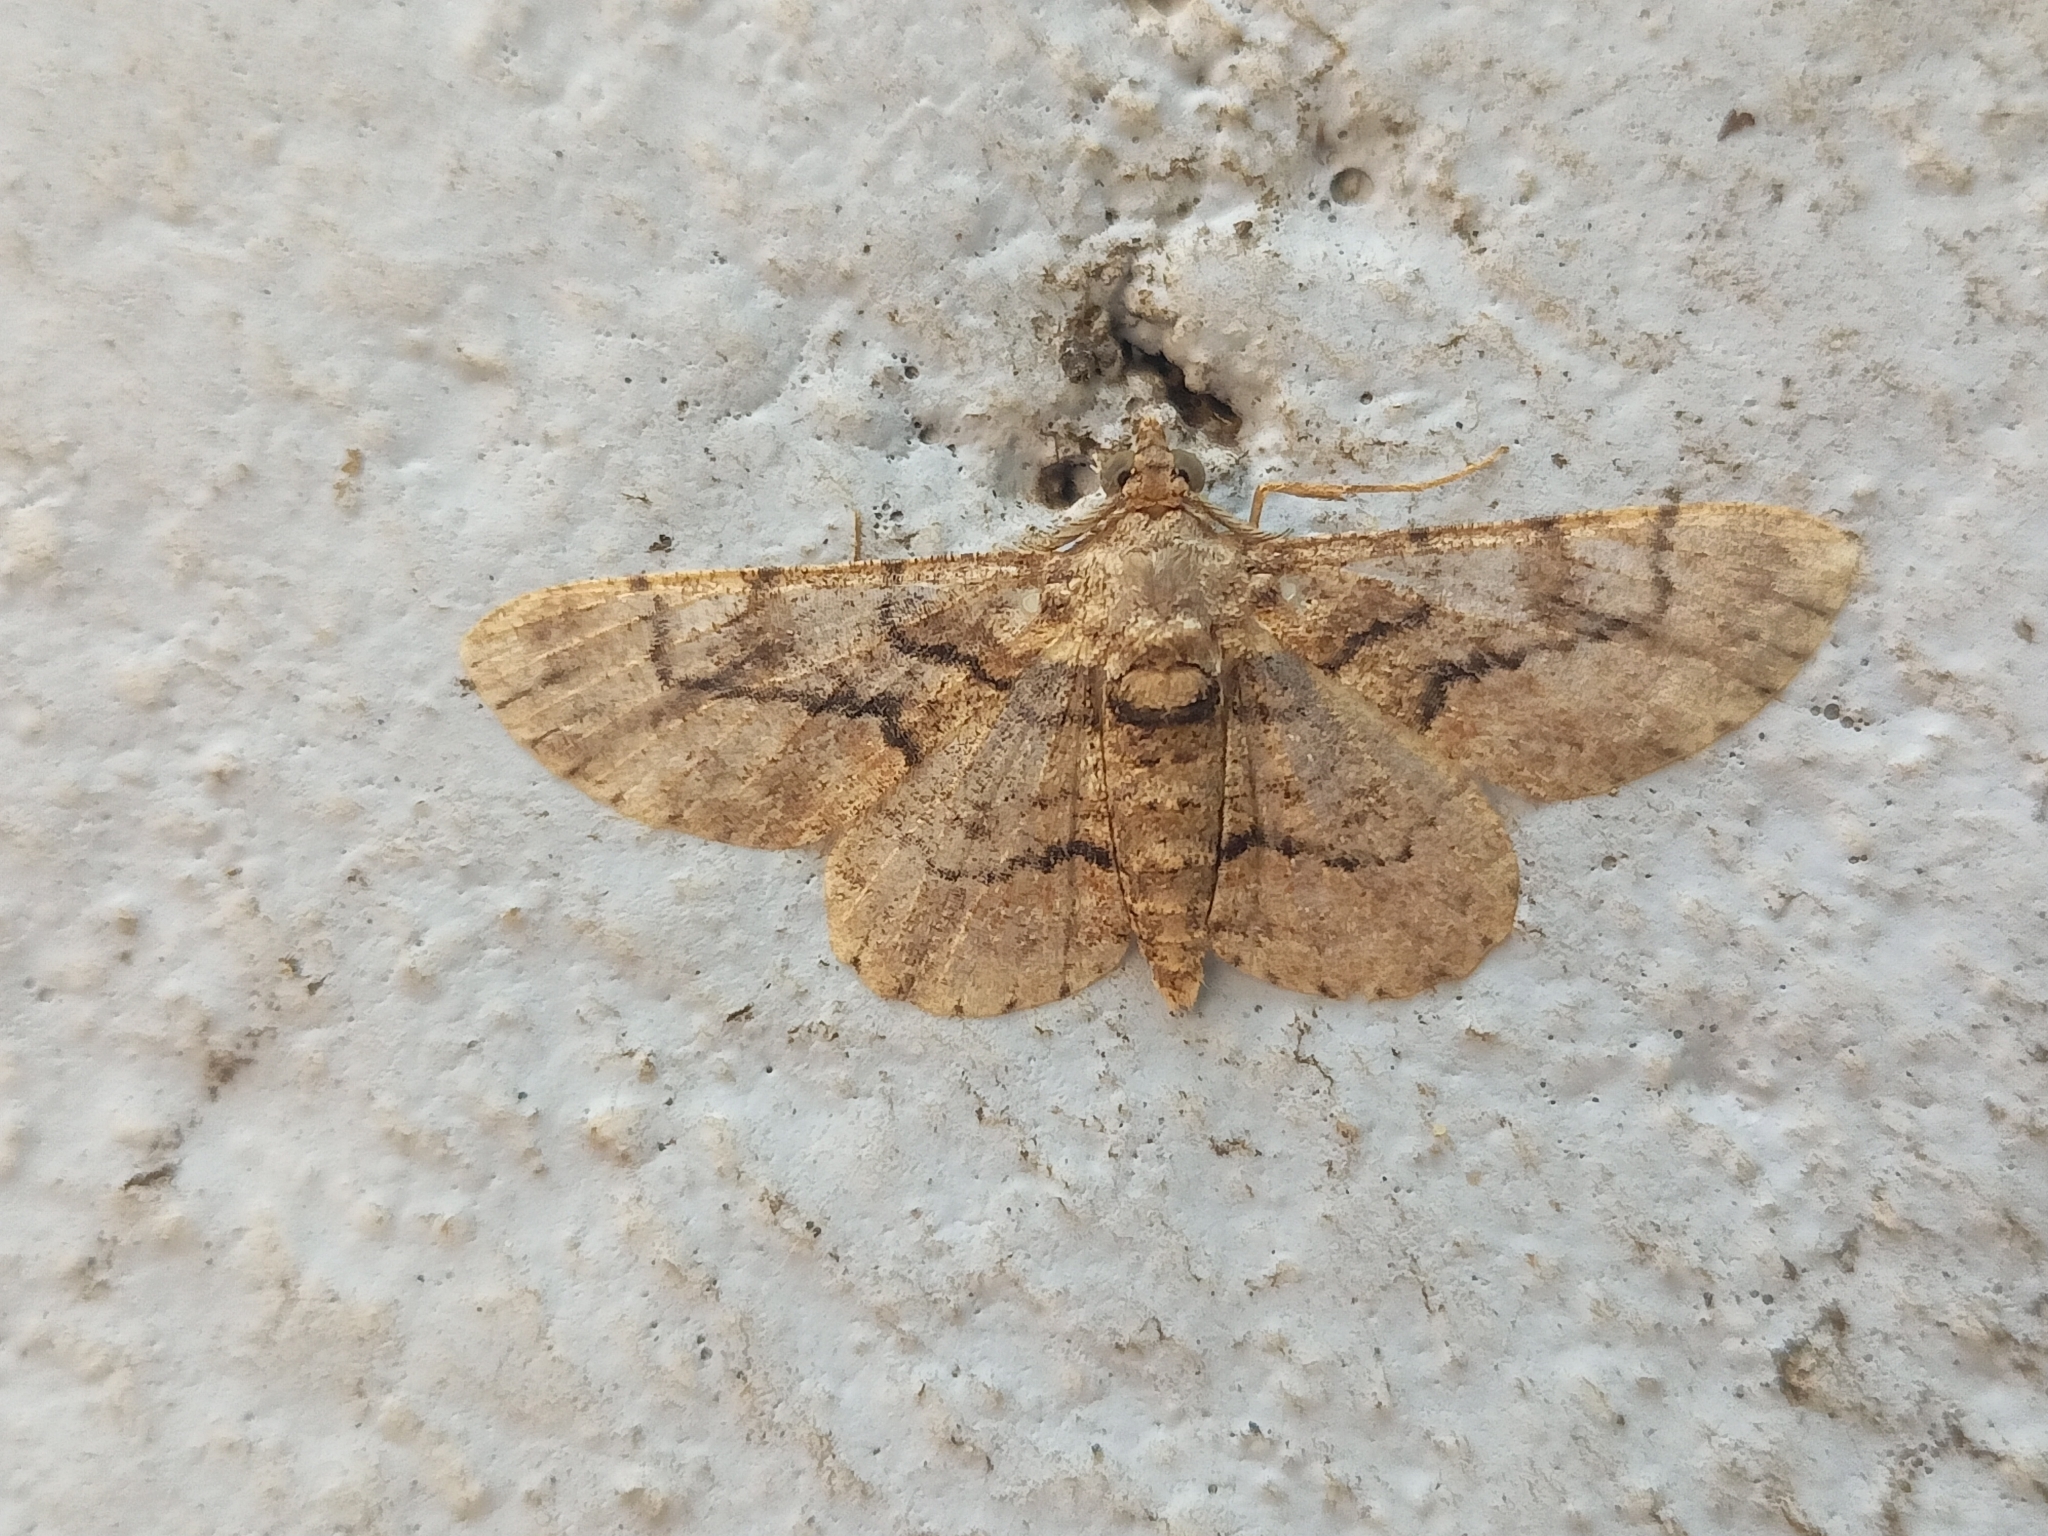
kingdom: Animalia
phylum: Arthropoda
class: Insecta
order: Lepidoptera
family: Geometridae
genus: Cleora
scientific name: Cleora repulsaria
